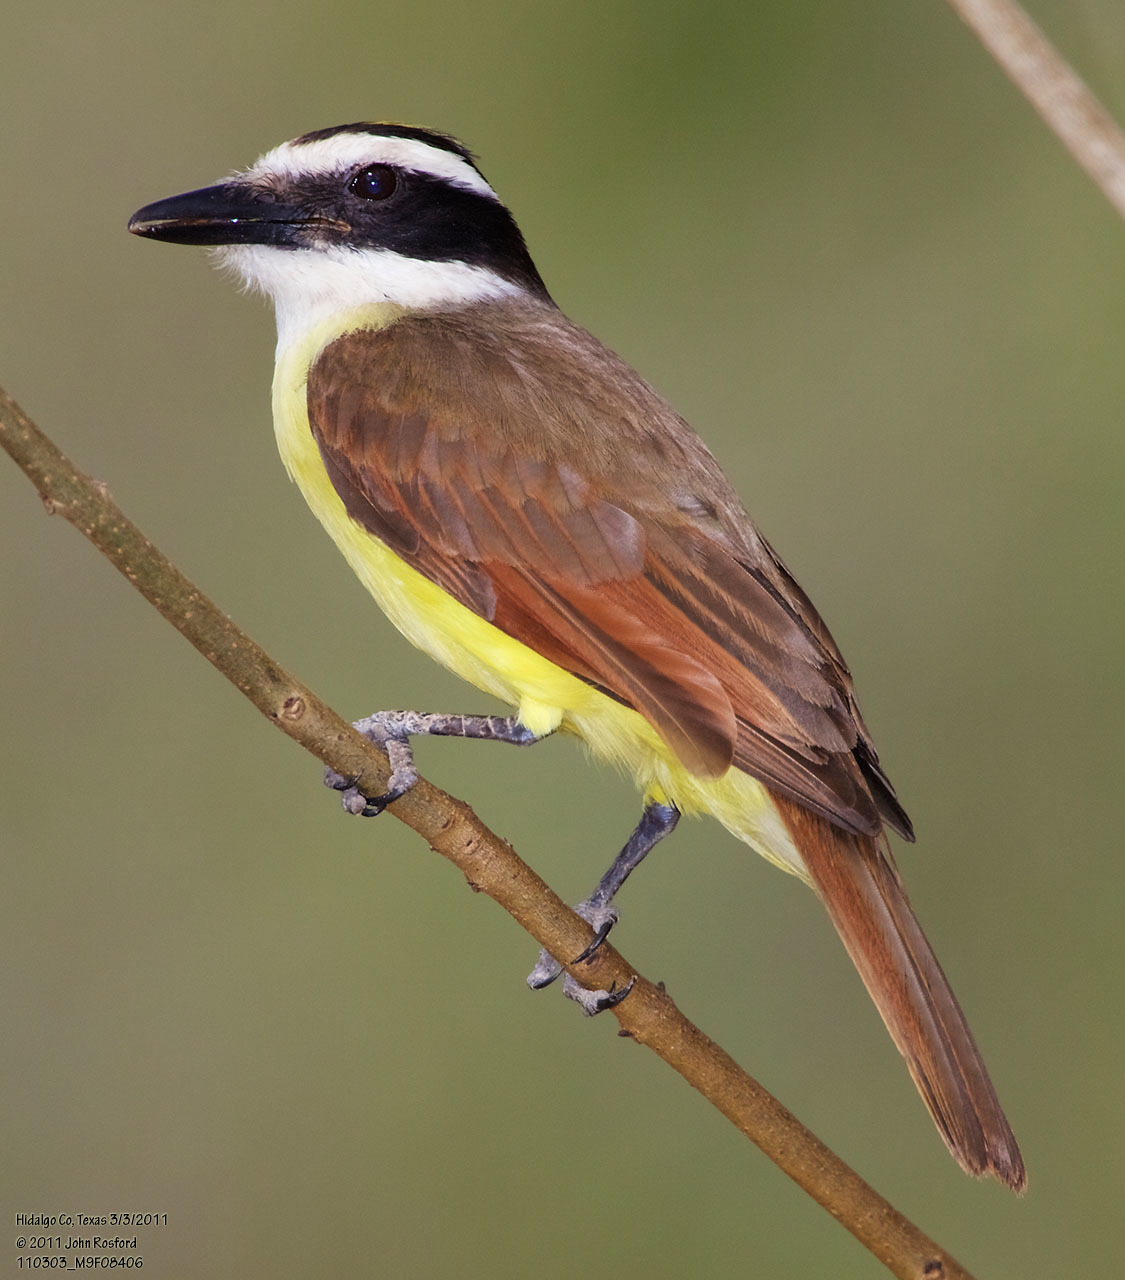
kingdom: Animalia
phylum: Chordata
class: Aves
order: Passeriformes
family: Tyrannidae
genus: Pitangus
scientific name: Pitangus sulphuratus
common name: Great kiskadee
